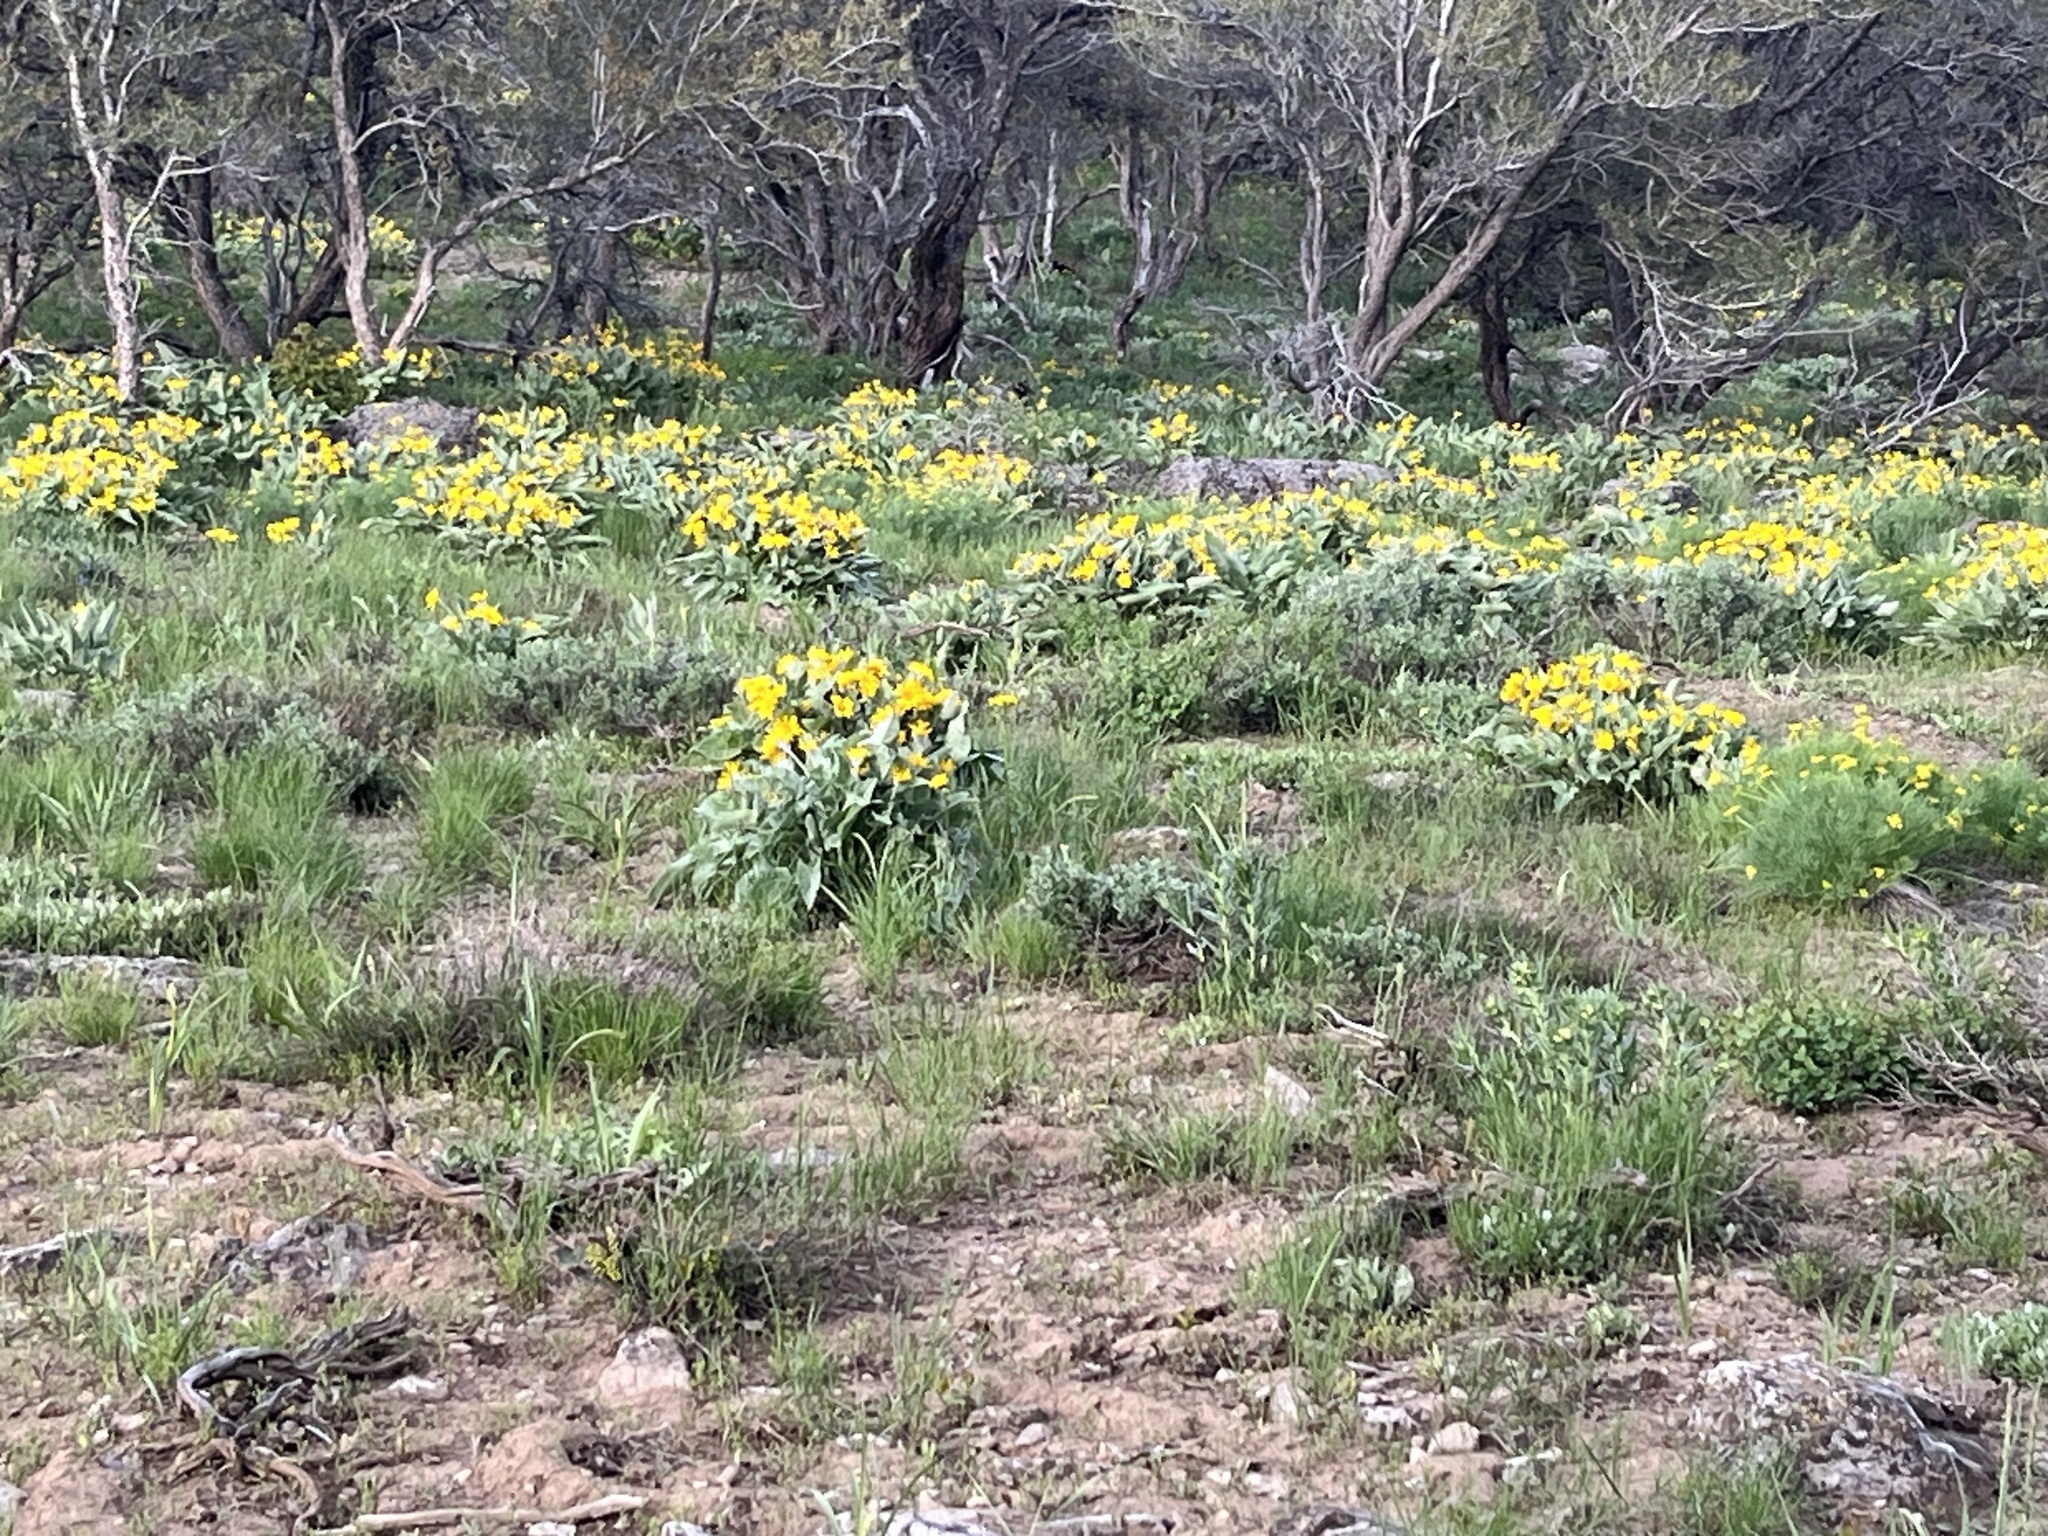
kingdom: Plantae
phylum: Tracheophyta
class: Magnoliopsida
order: Asterales
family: Asteraceae
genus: Wyethia
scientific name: Wyethia sagittata
